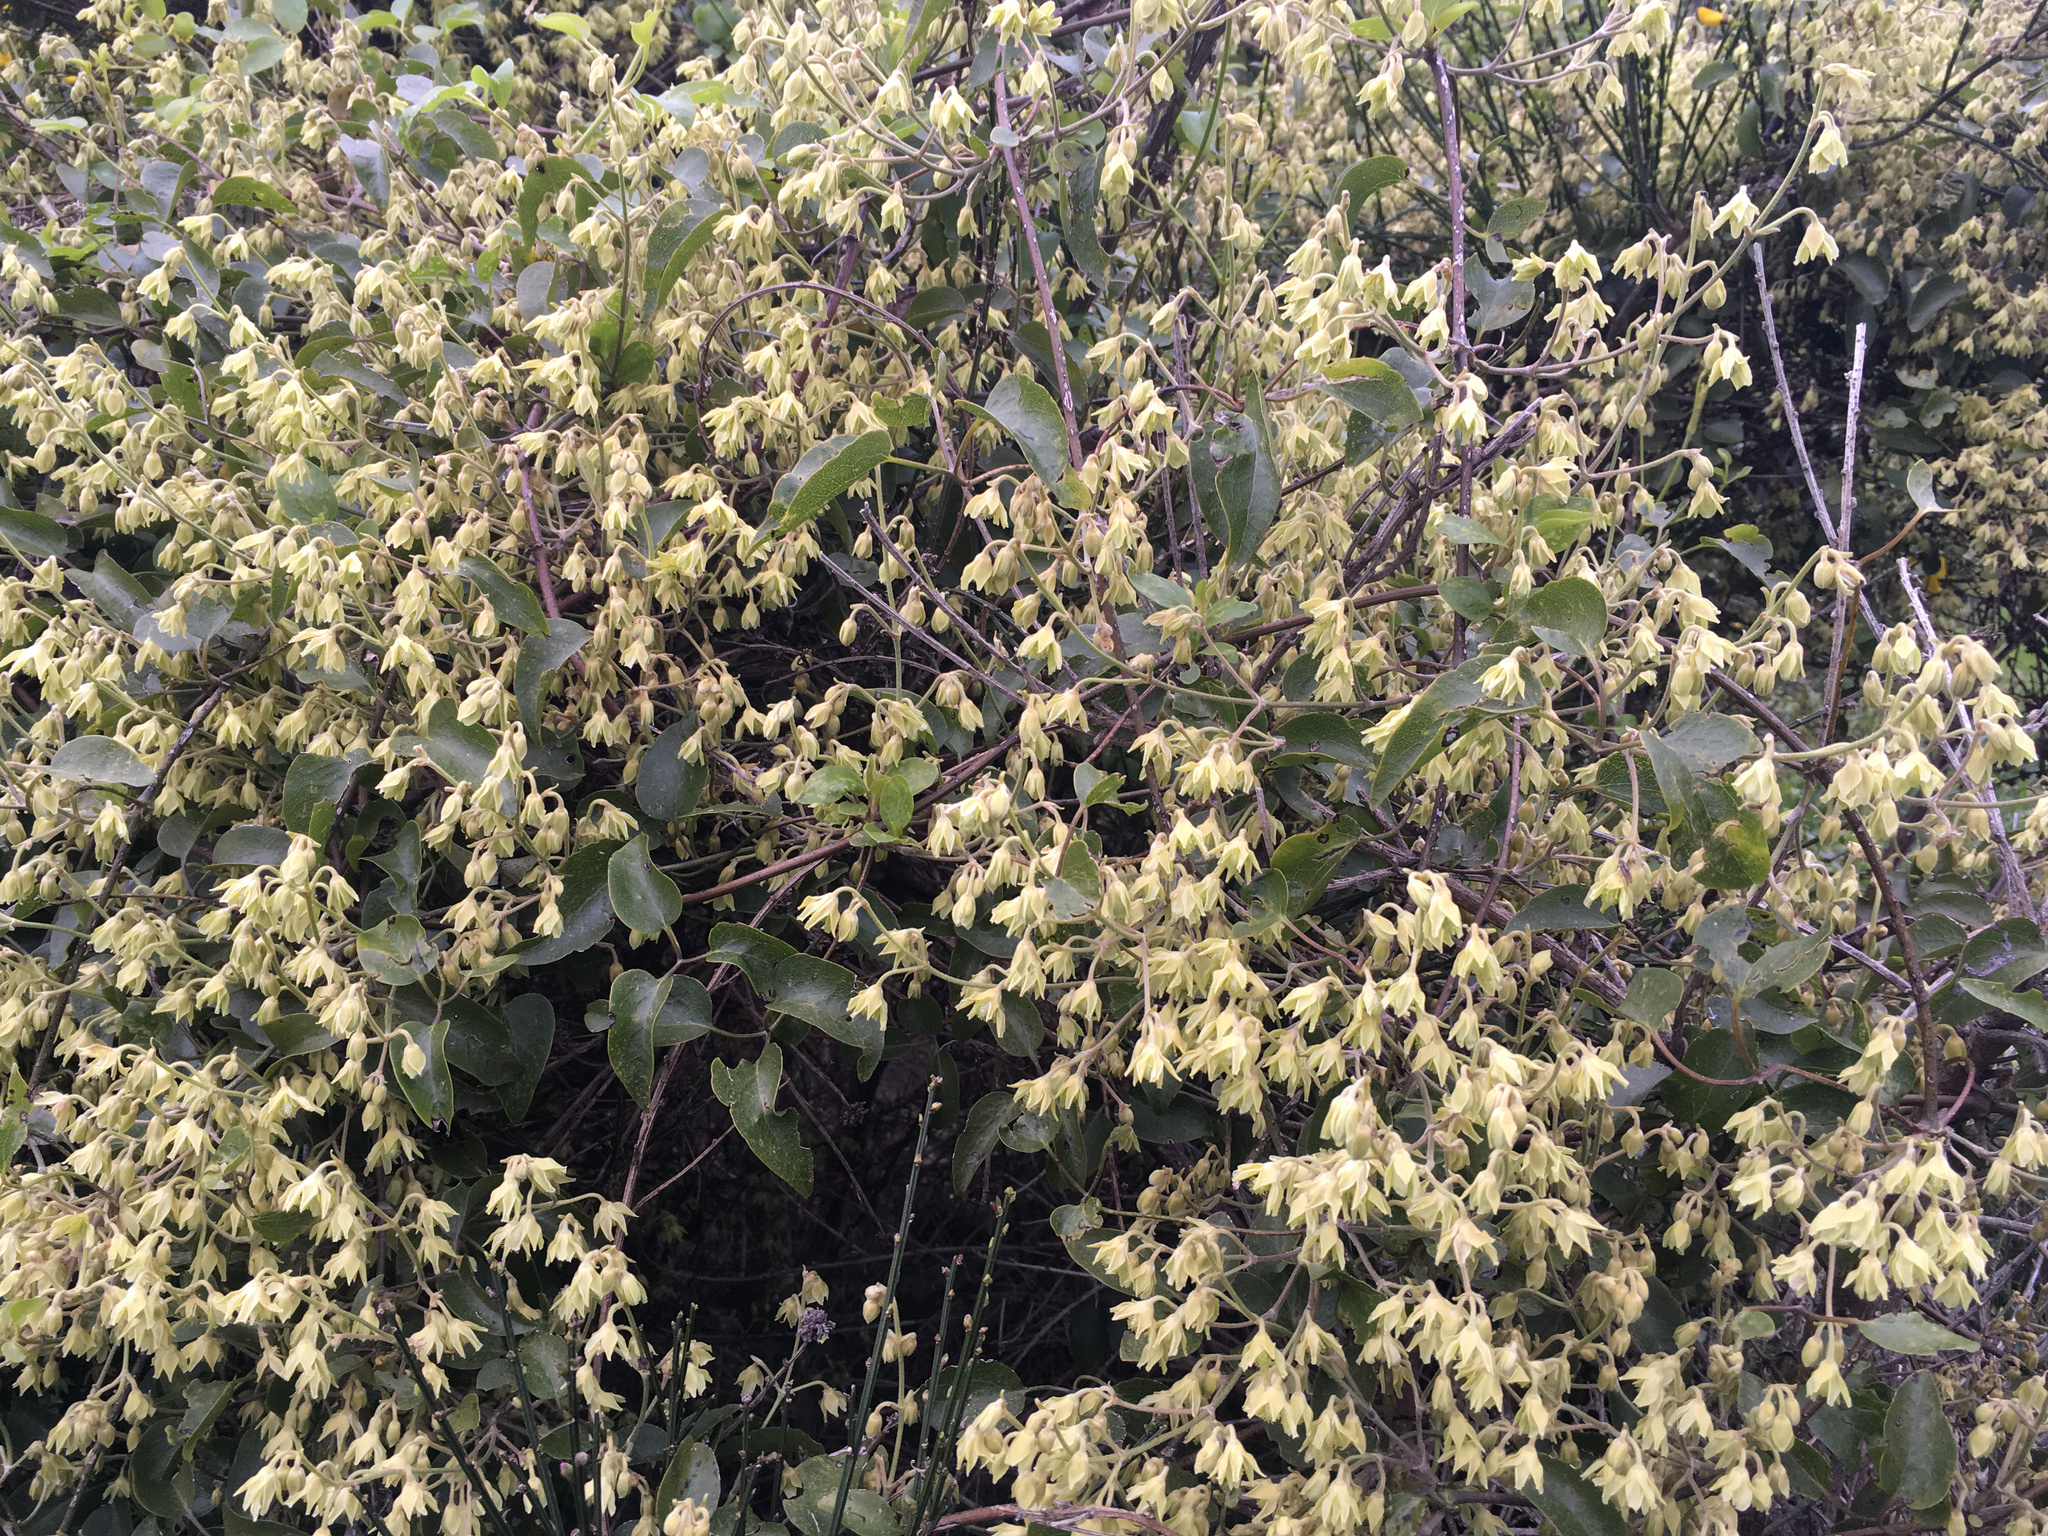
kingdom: Plantae
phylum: Tracheophyta
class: Magnoliopsida
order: Ranunculales
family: Ranunculaceae
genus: Clematis
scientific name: Clematis foetida
